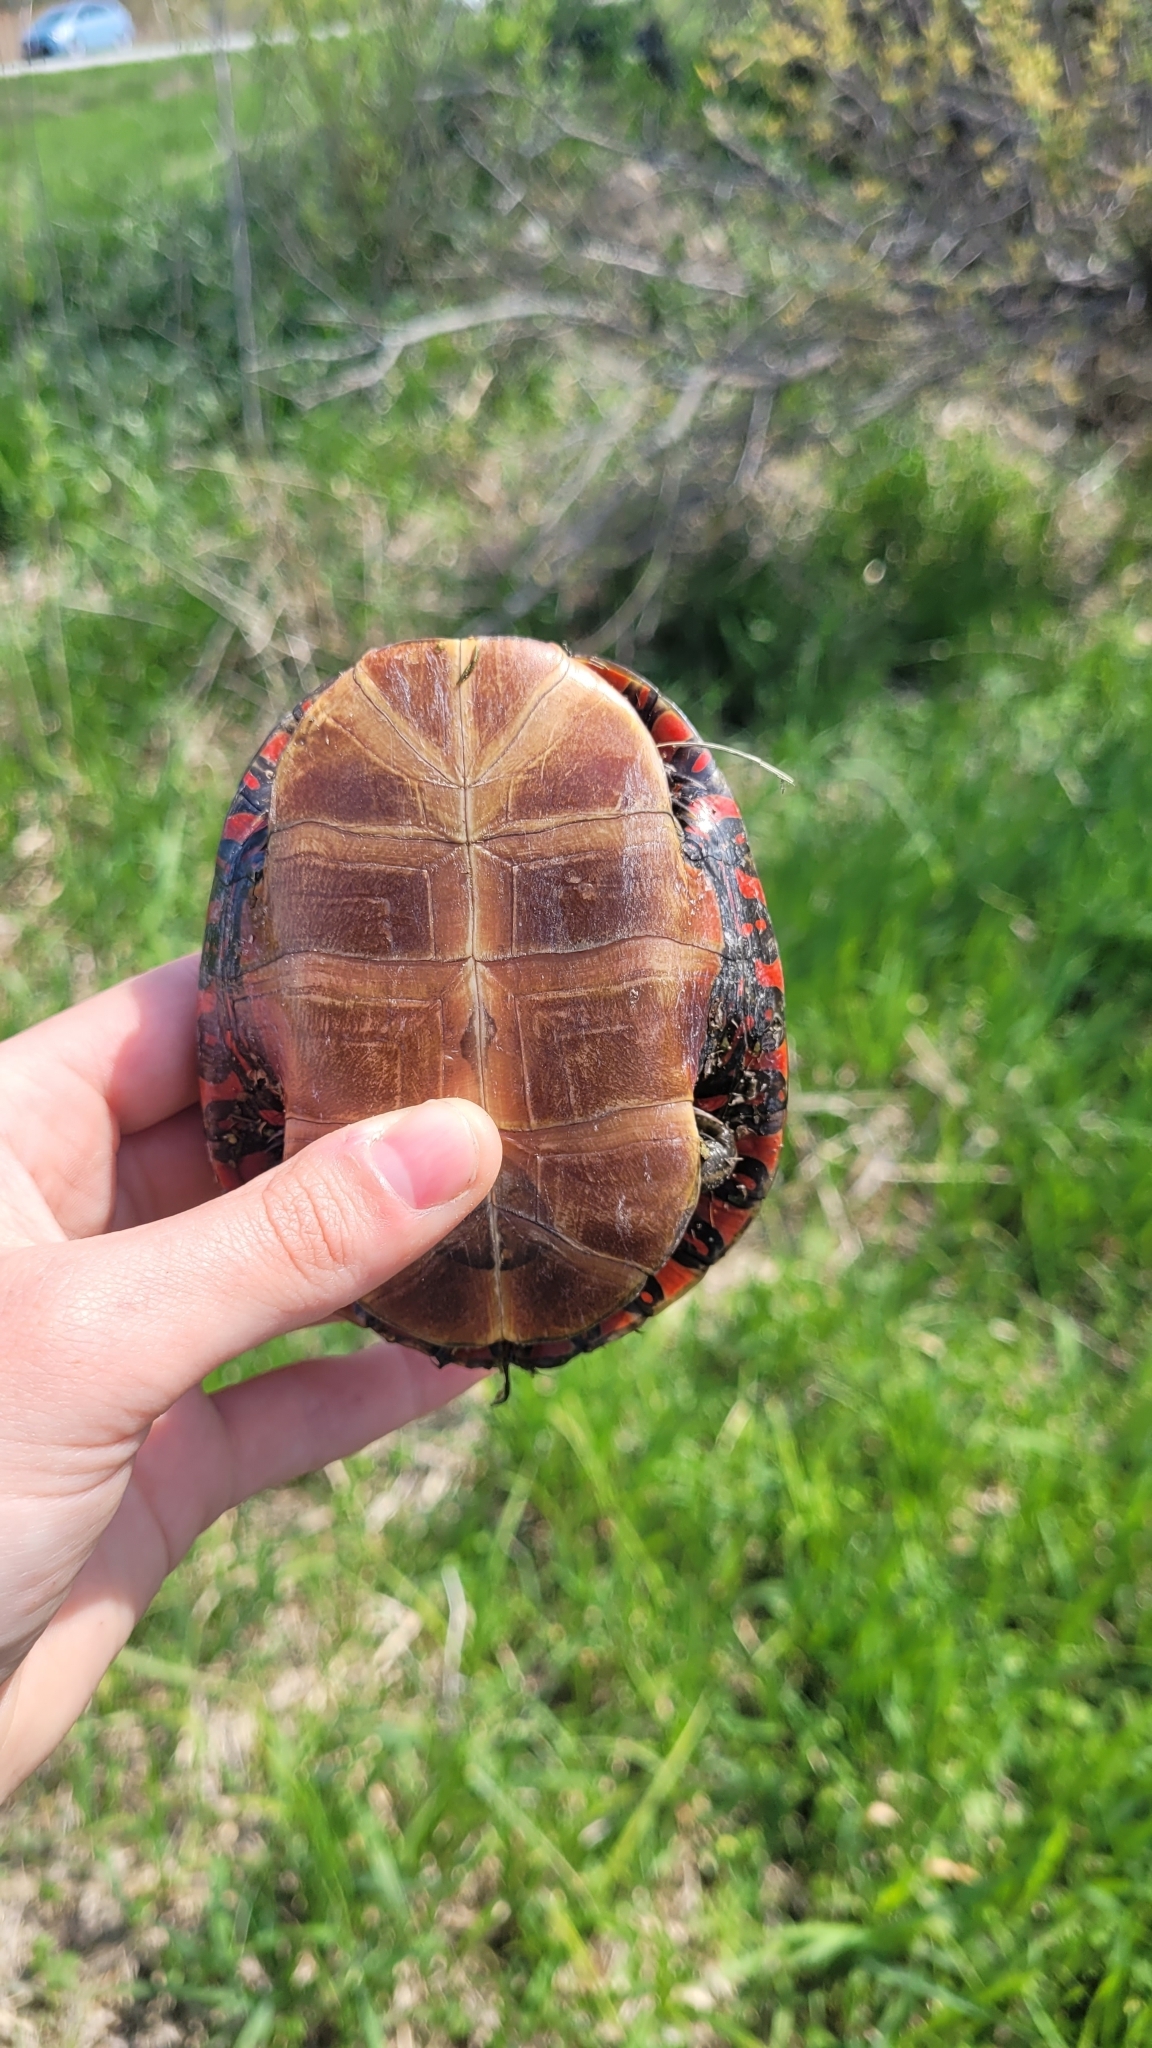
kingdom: Animalia
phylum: Chordata
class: Testudines
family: Emydidae
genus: Chrysemys
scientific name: Chrysemys picta
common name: Painted turtle
